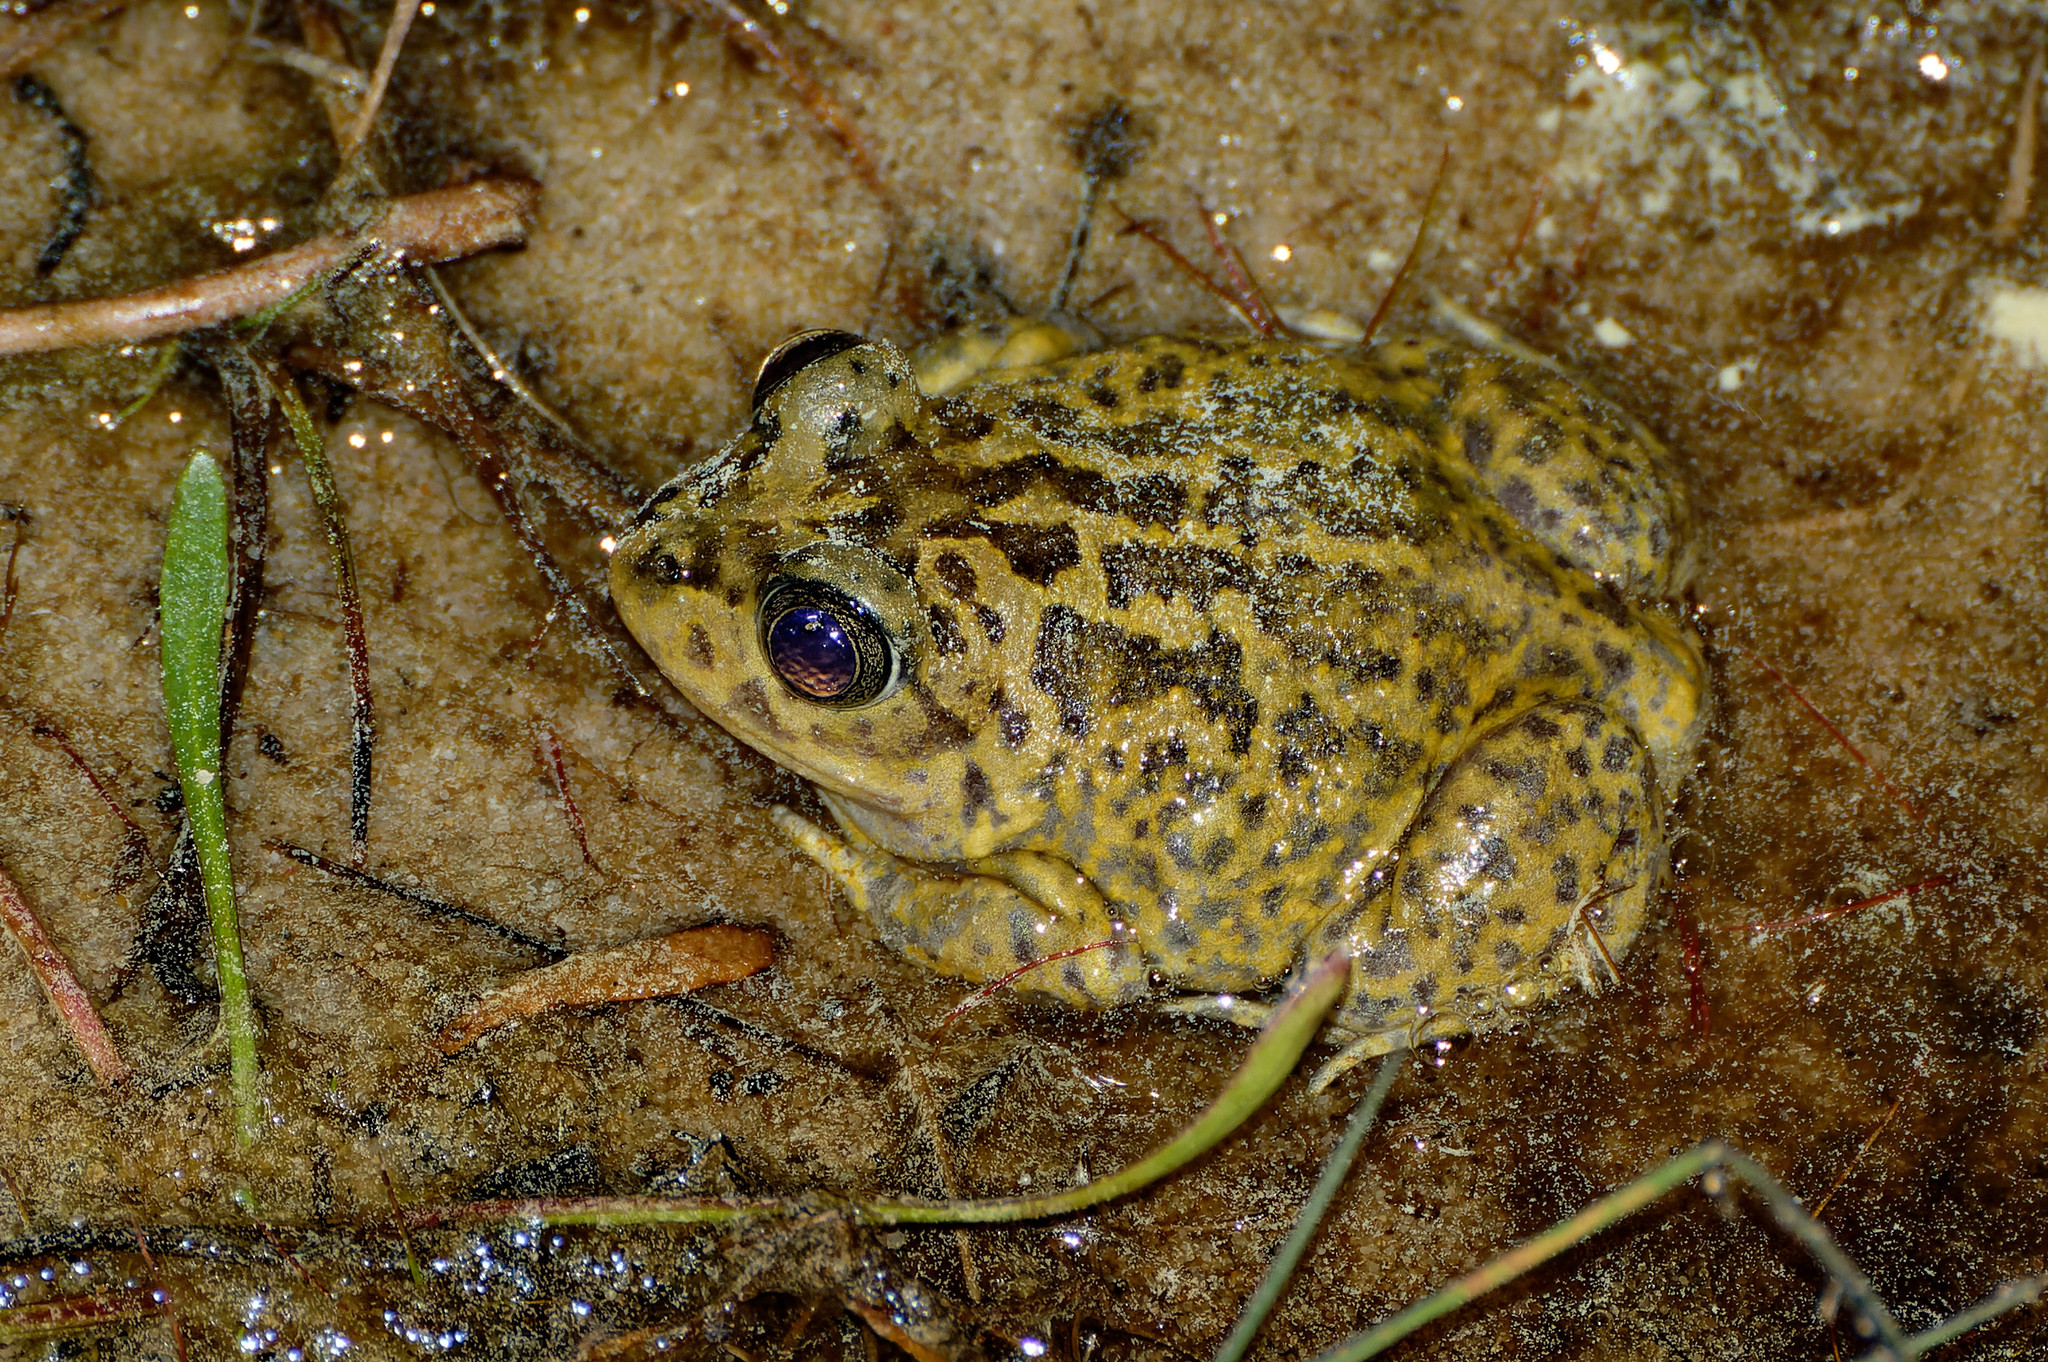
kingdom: Animalia
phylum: Chordata
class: Amphibia
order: Anura
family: Pelobatidae
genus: Pelobates
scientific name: Pelobates cultripes
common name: Western spadefoot
